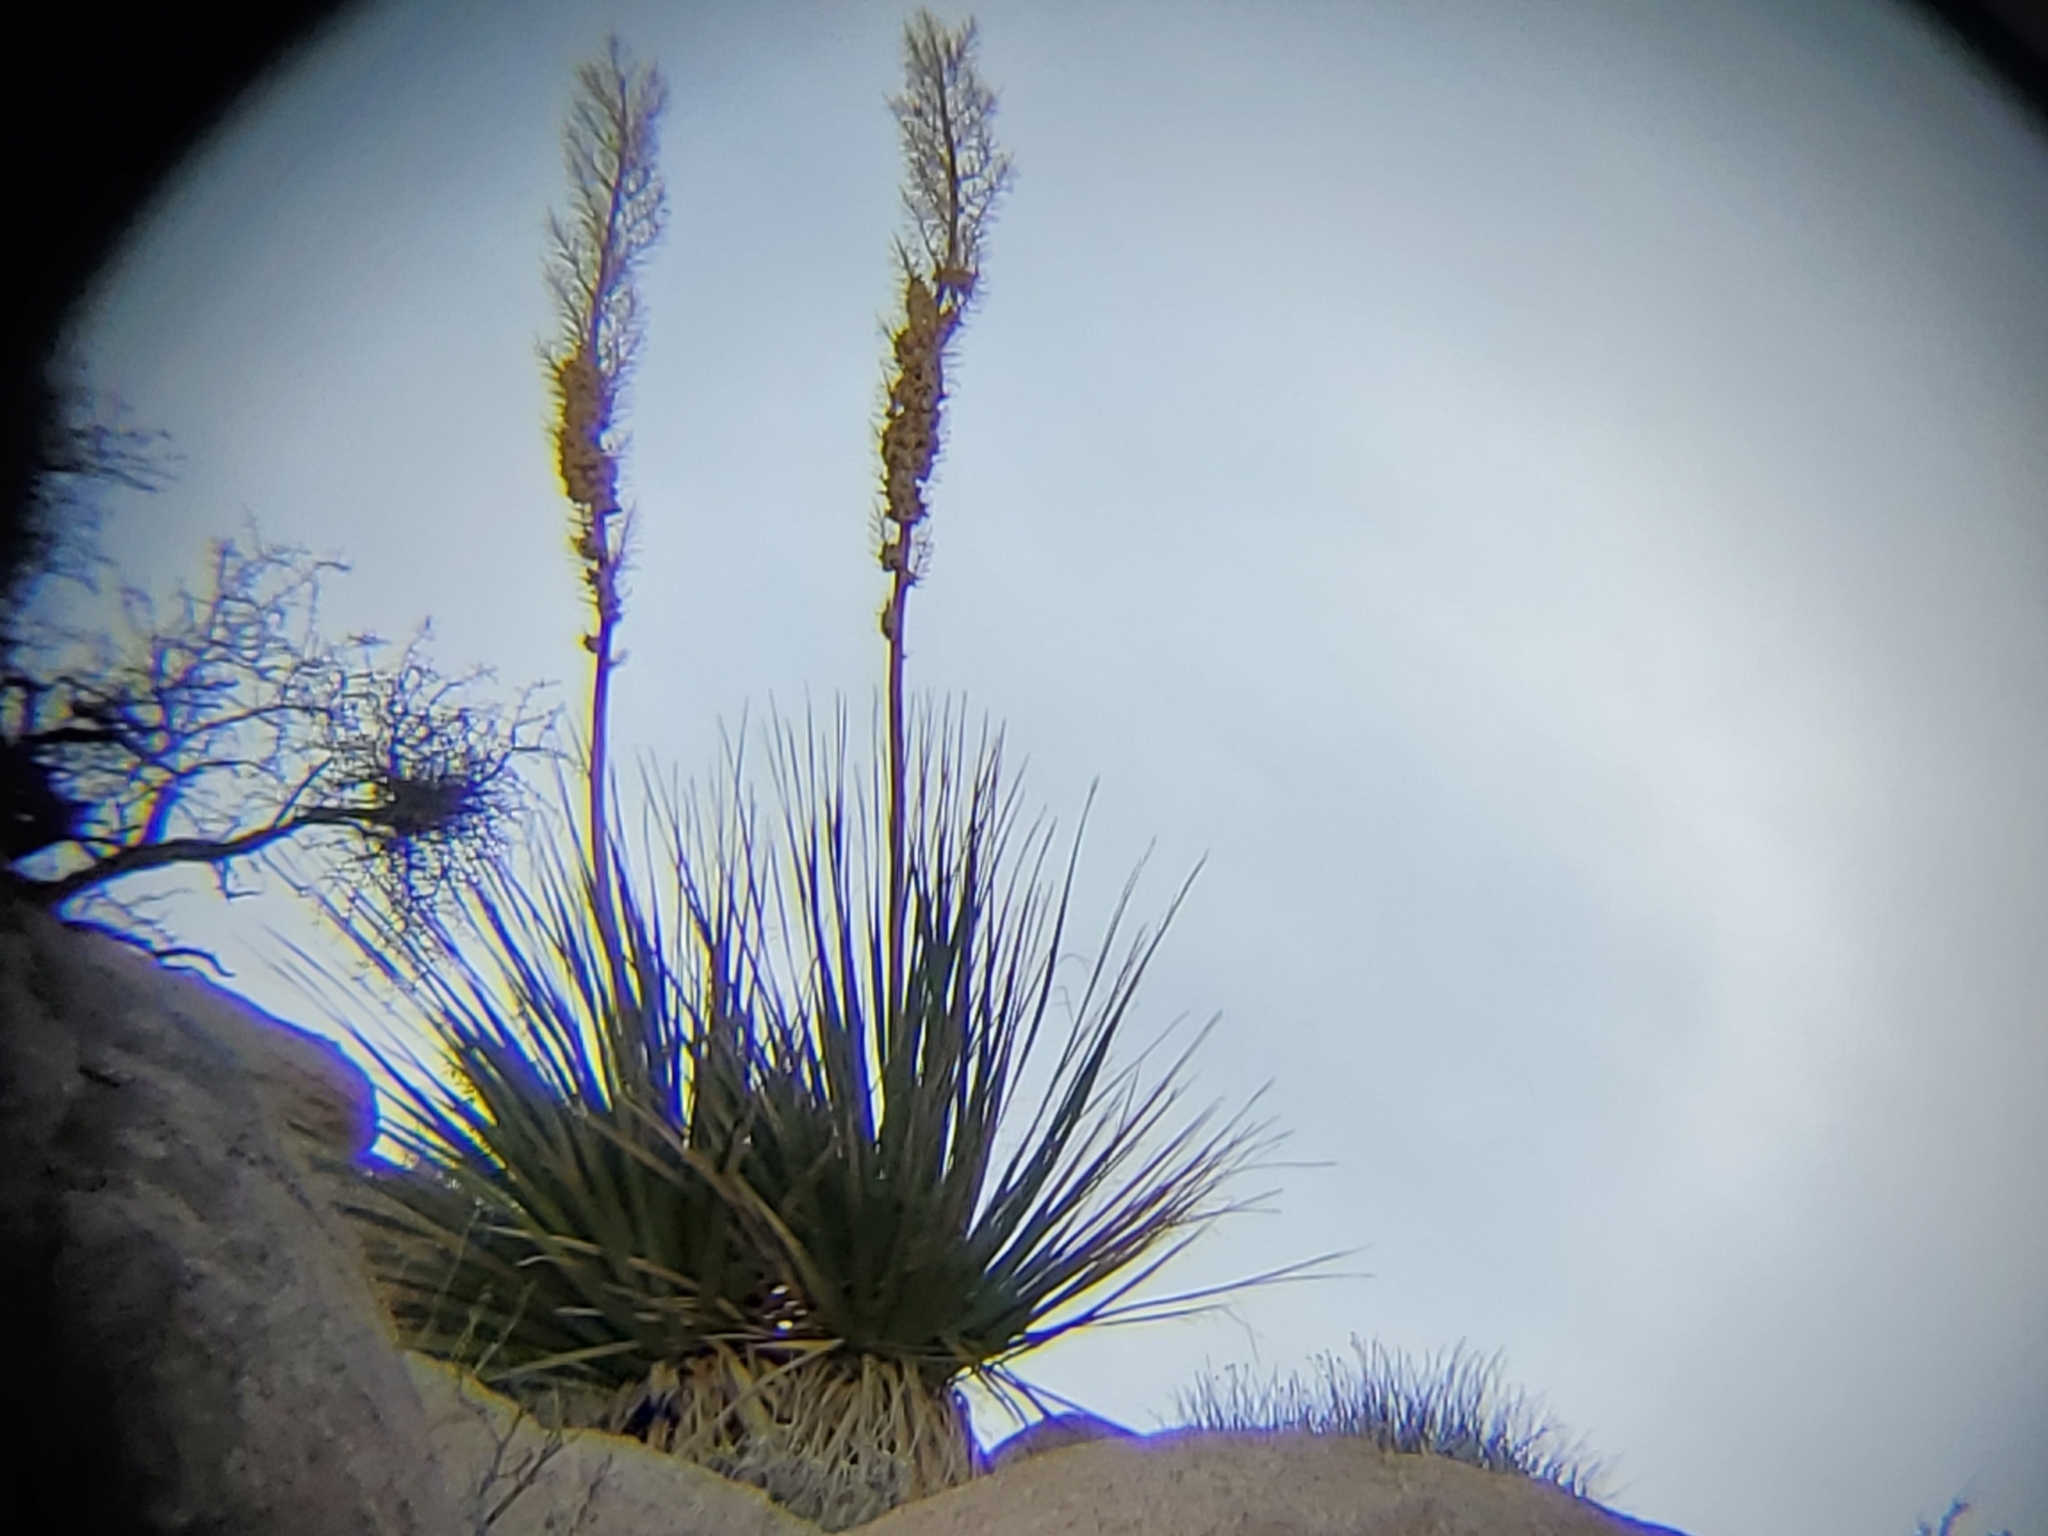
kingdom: Plantae
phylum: Tracheophyta
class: Liliopsida
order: Asparagales
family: Asparagaceae
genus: Nolina
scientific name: Nolina bigelovii
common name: Bigelow bear-grass
